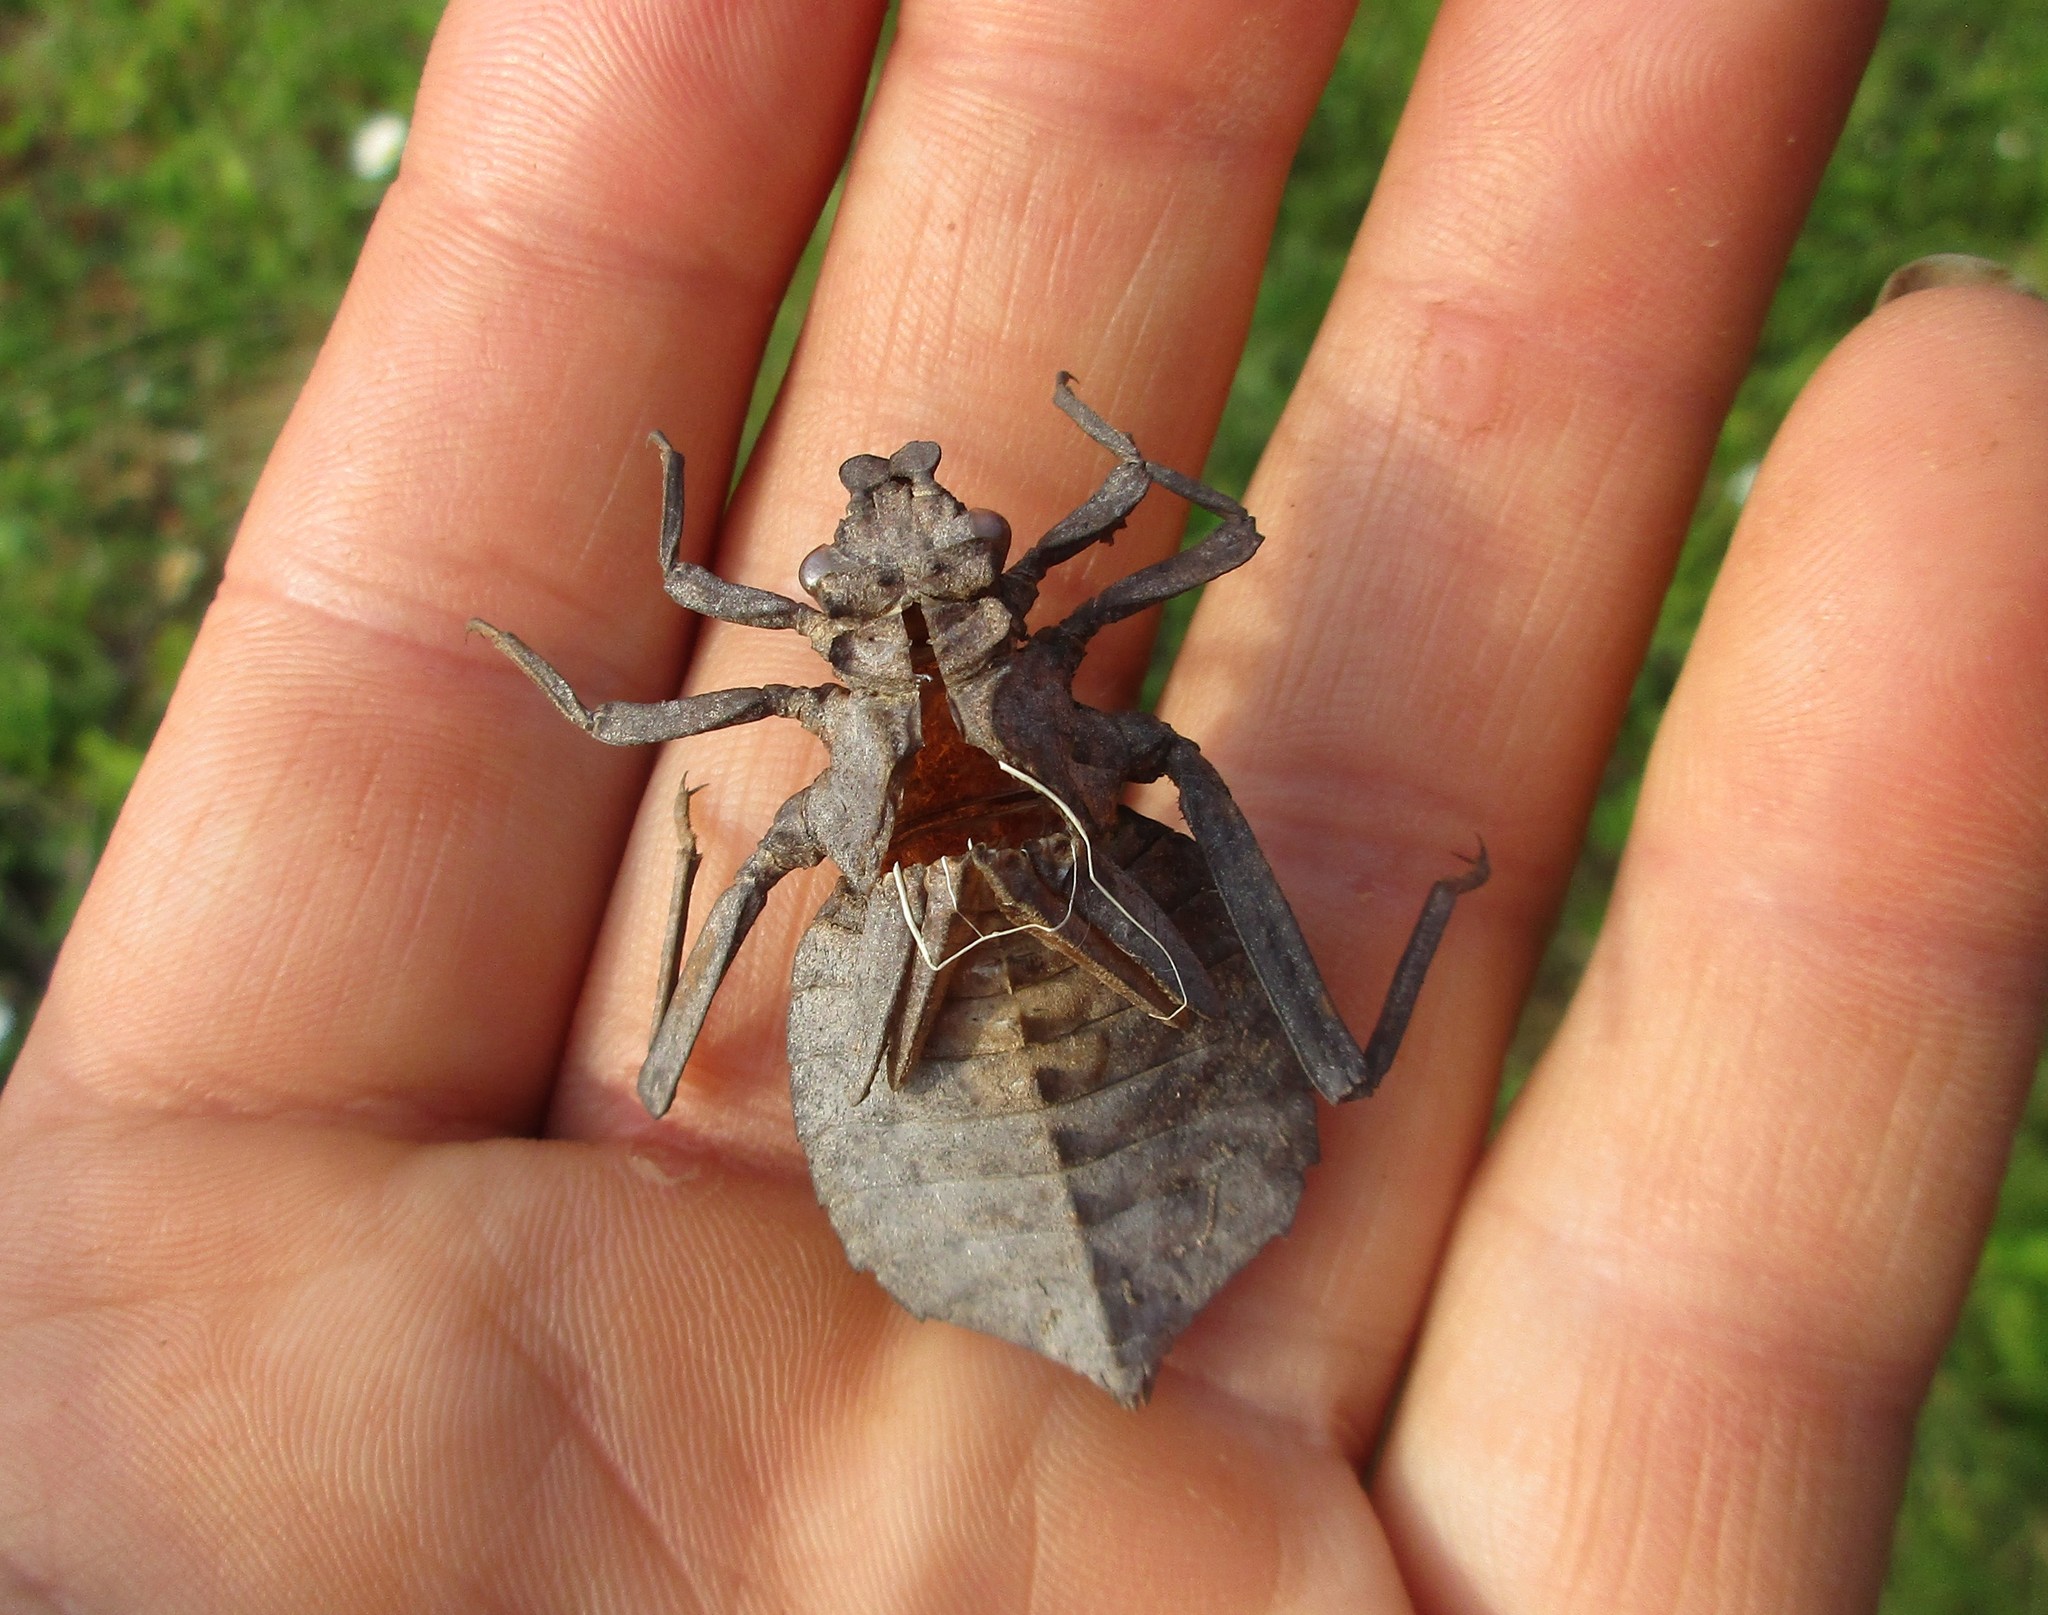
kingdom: Animalia
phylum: Arthropoda
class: Insecta
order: Odonata
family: Gomphidae
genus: Hagenius
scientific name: Hagenius brevistylus
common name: Dragonhunter
